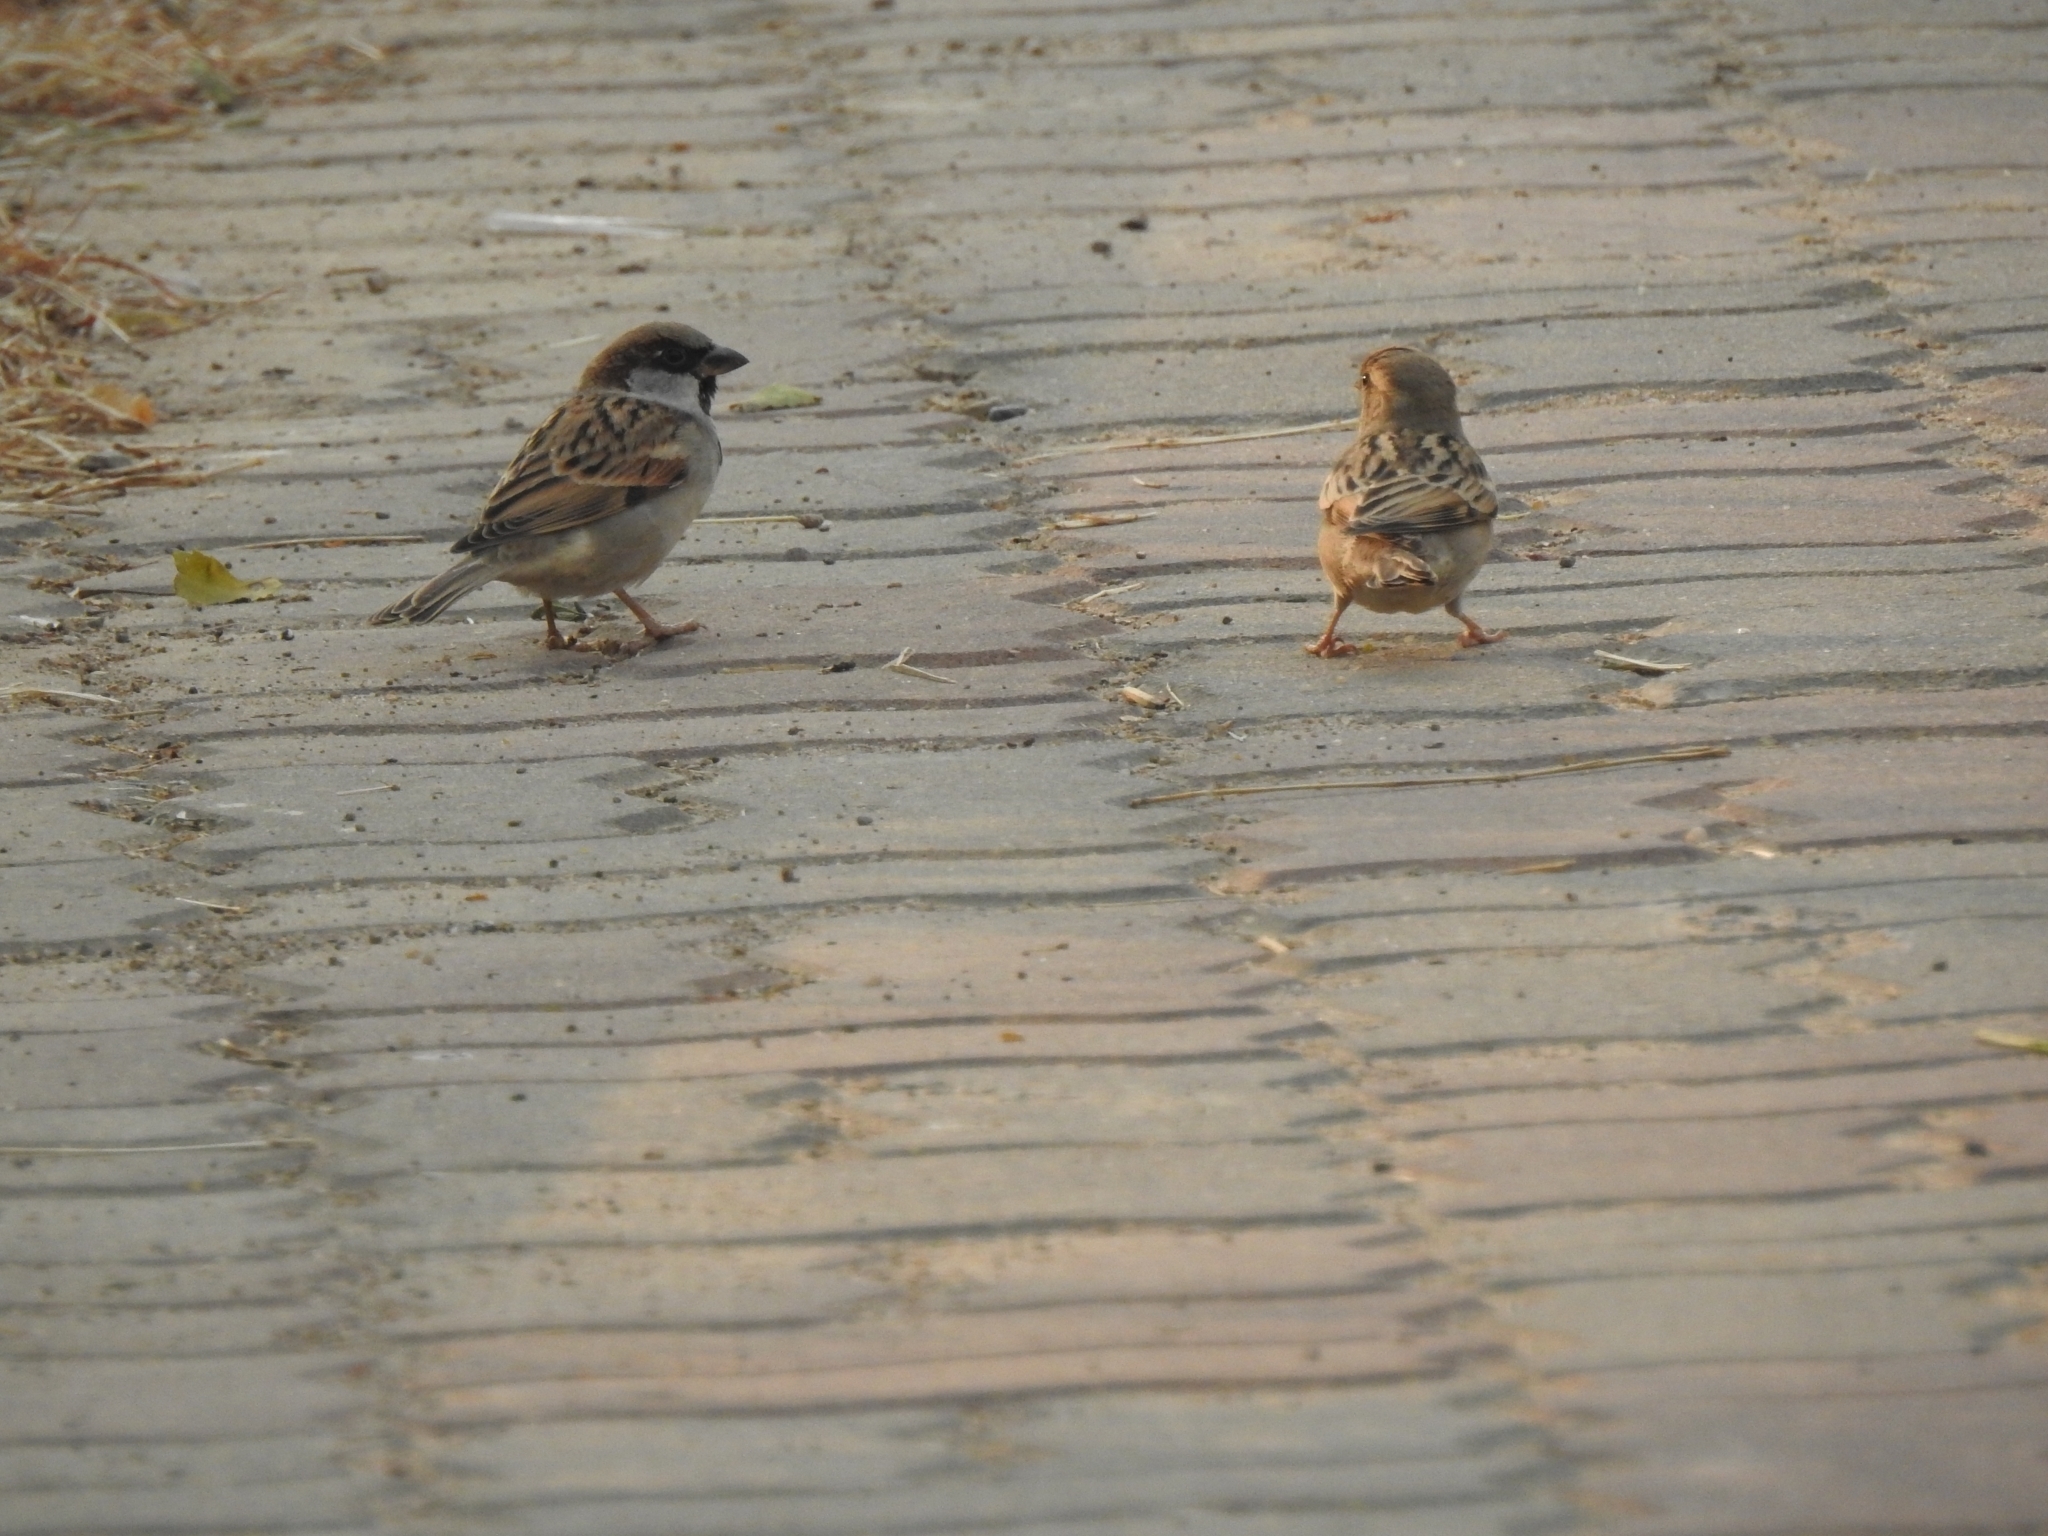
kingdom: Animalia
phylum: Chordata
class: Aves
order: Passeriformes
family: Passeridae
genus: Passer
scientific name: Passer domesticus
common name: House sparrow
